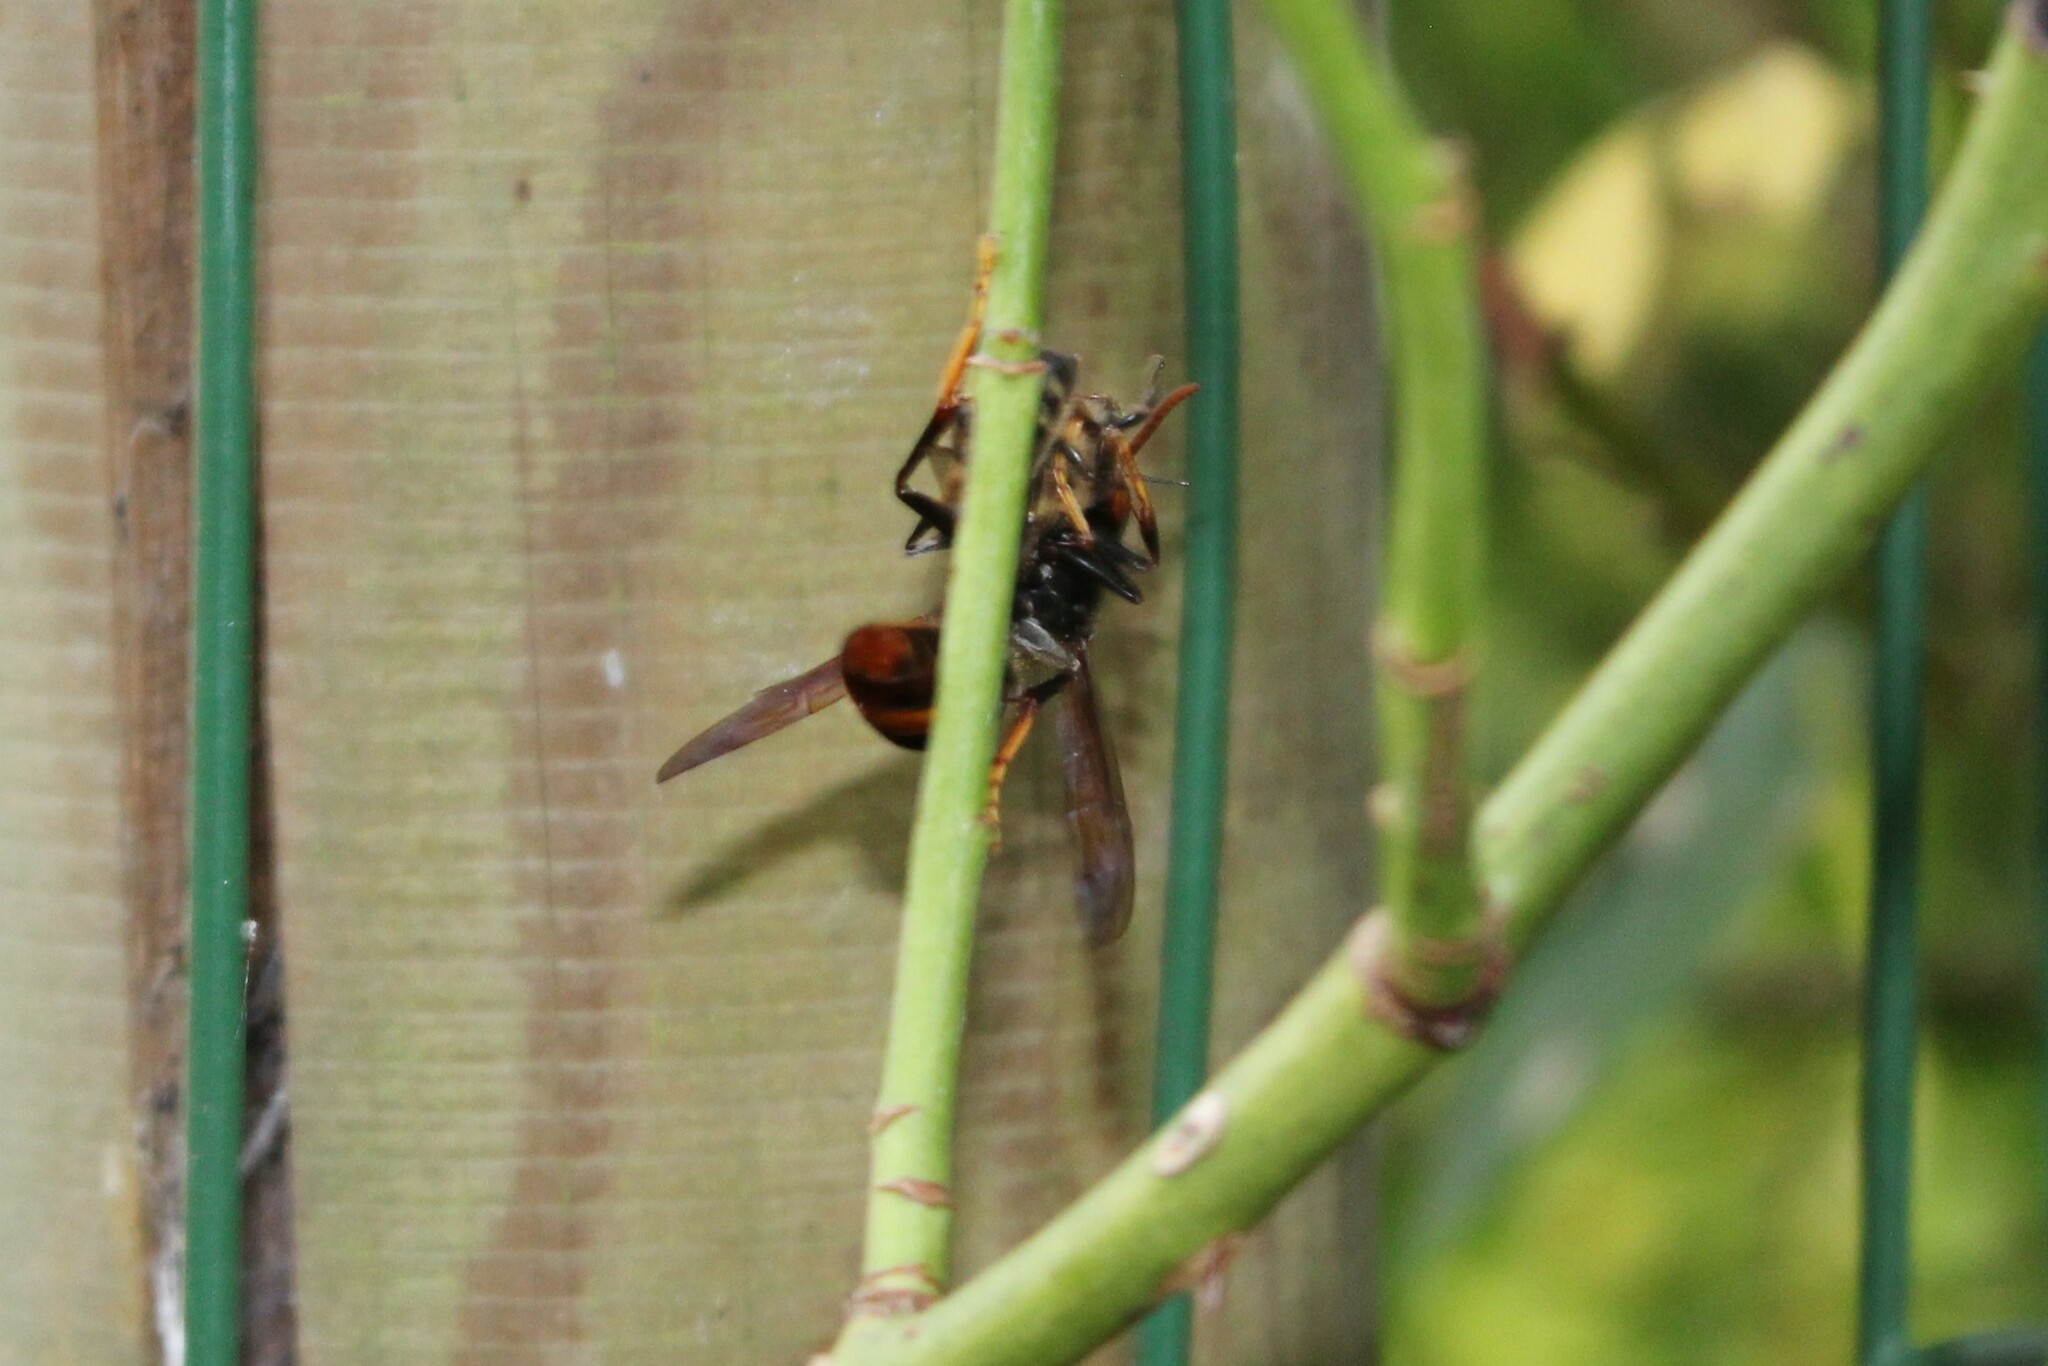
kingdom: Animalia
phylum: Arthropoda
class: Insecta
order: Hymenoptera
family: Vespidae
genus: Vespa
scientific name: Vespa velutina
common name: Asian hornet
